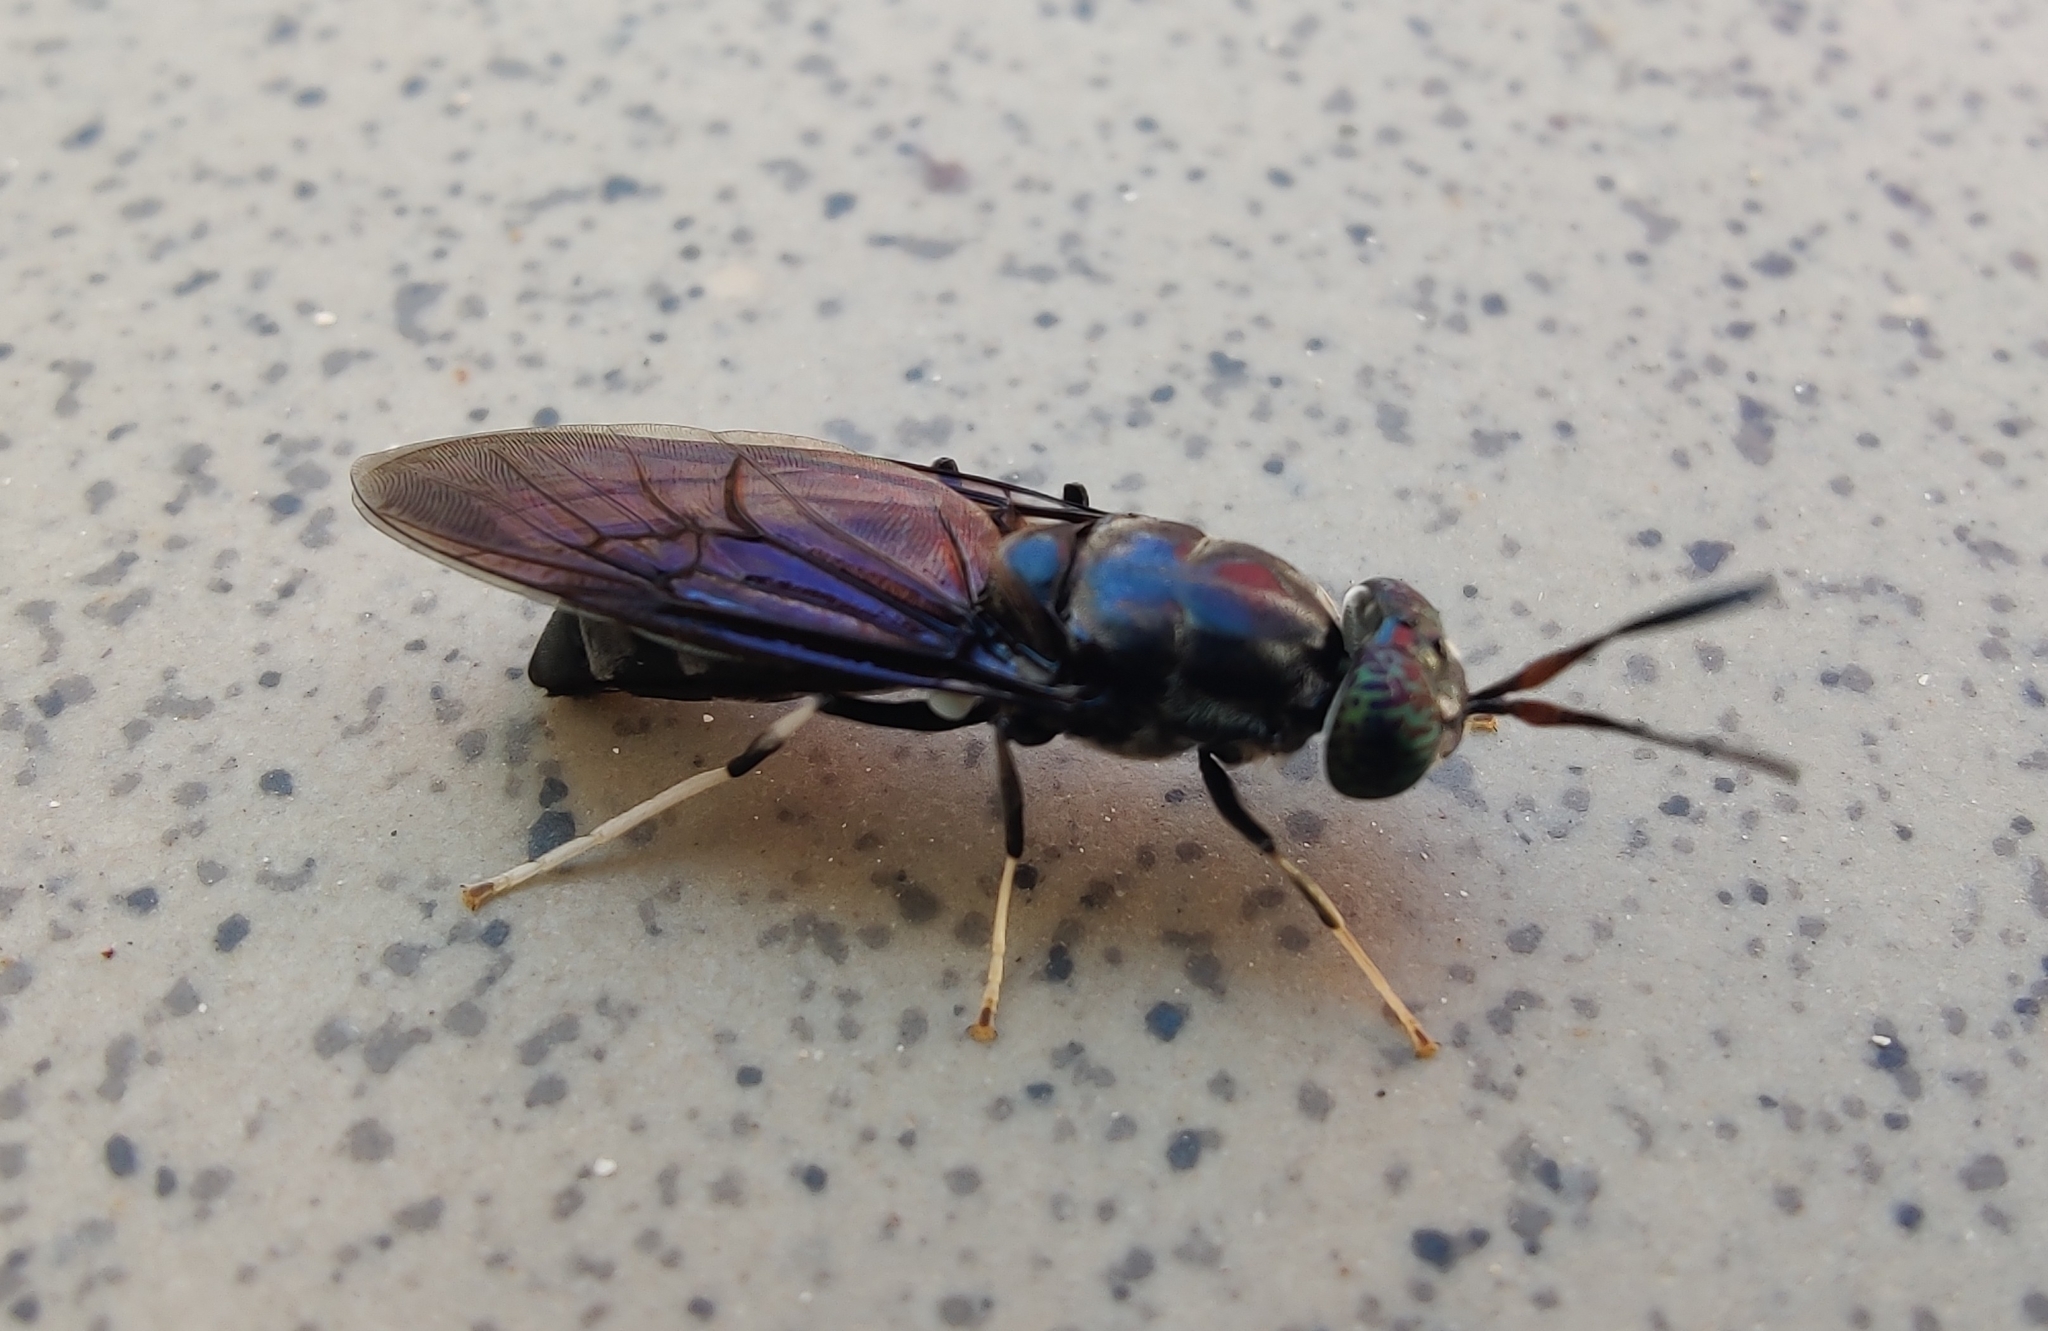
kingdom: Animalia
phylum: Arthropoda
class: Insecta
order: Diptera
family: Stratiomyidae
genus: Hermetia
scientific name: Hermetia illucens
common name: Black soldier fly
